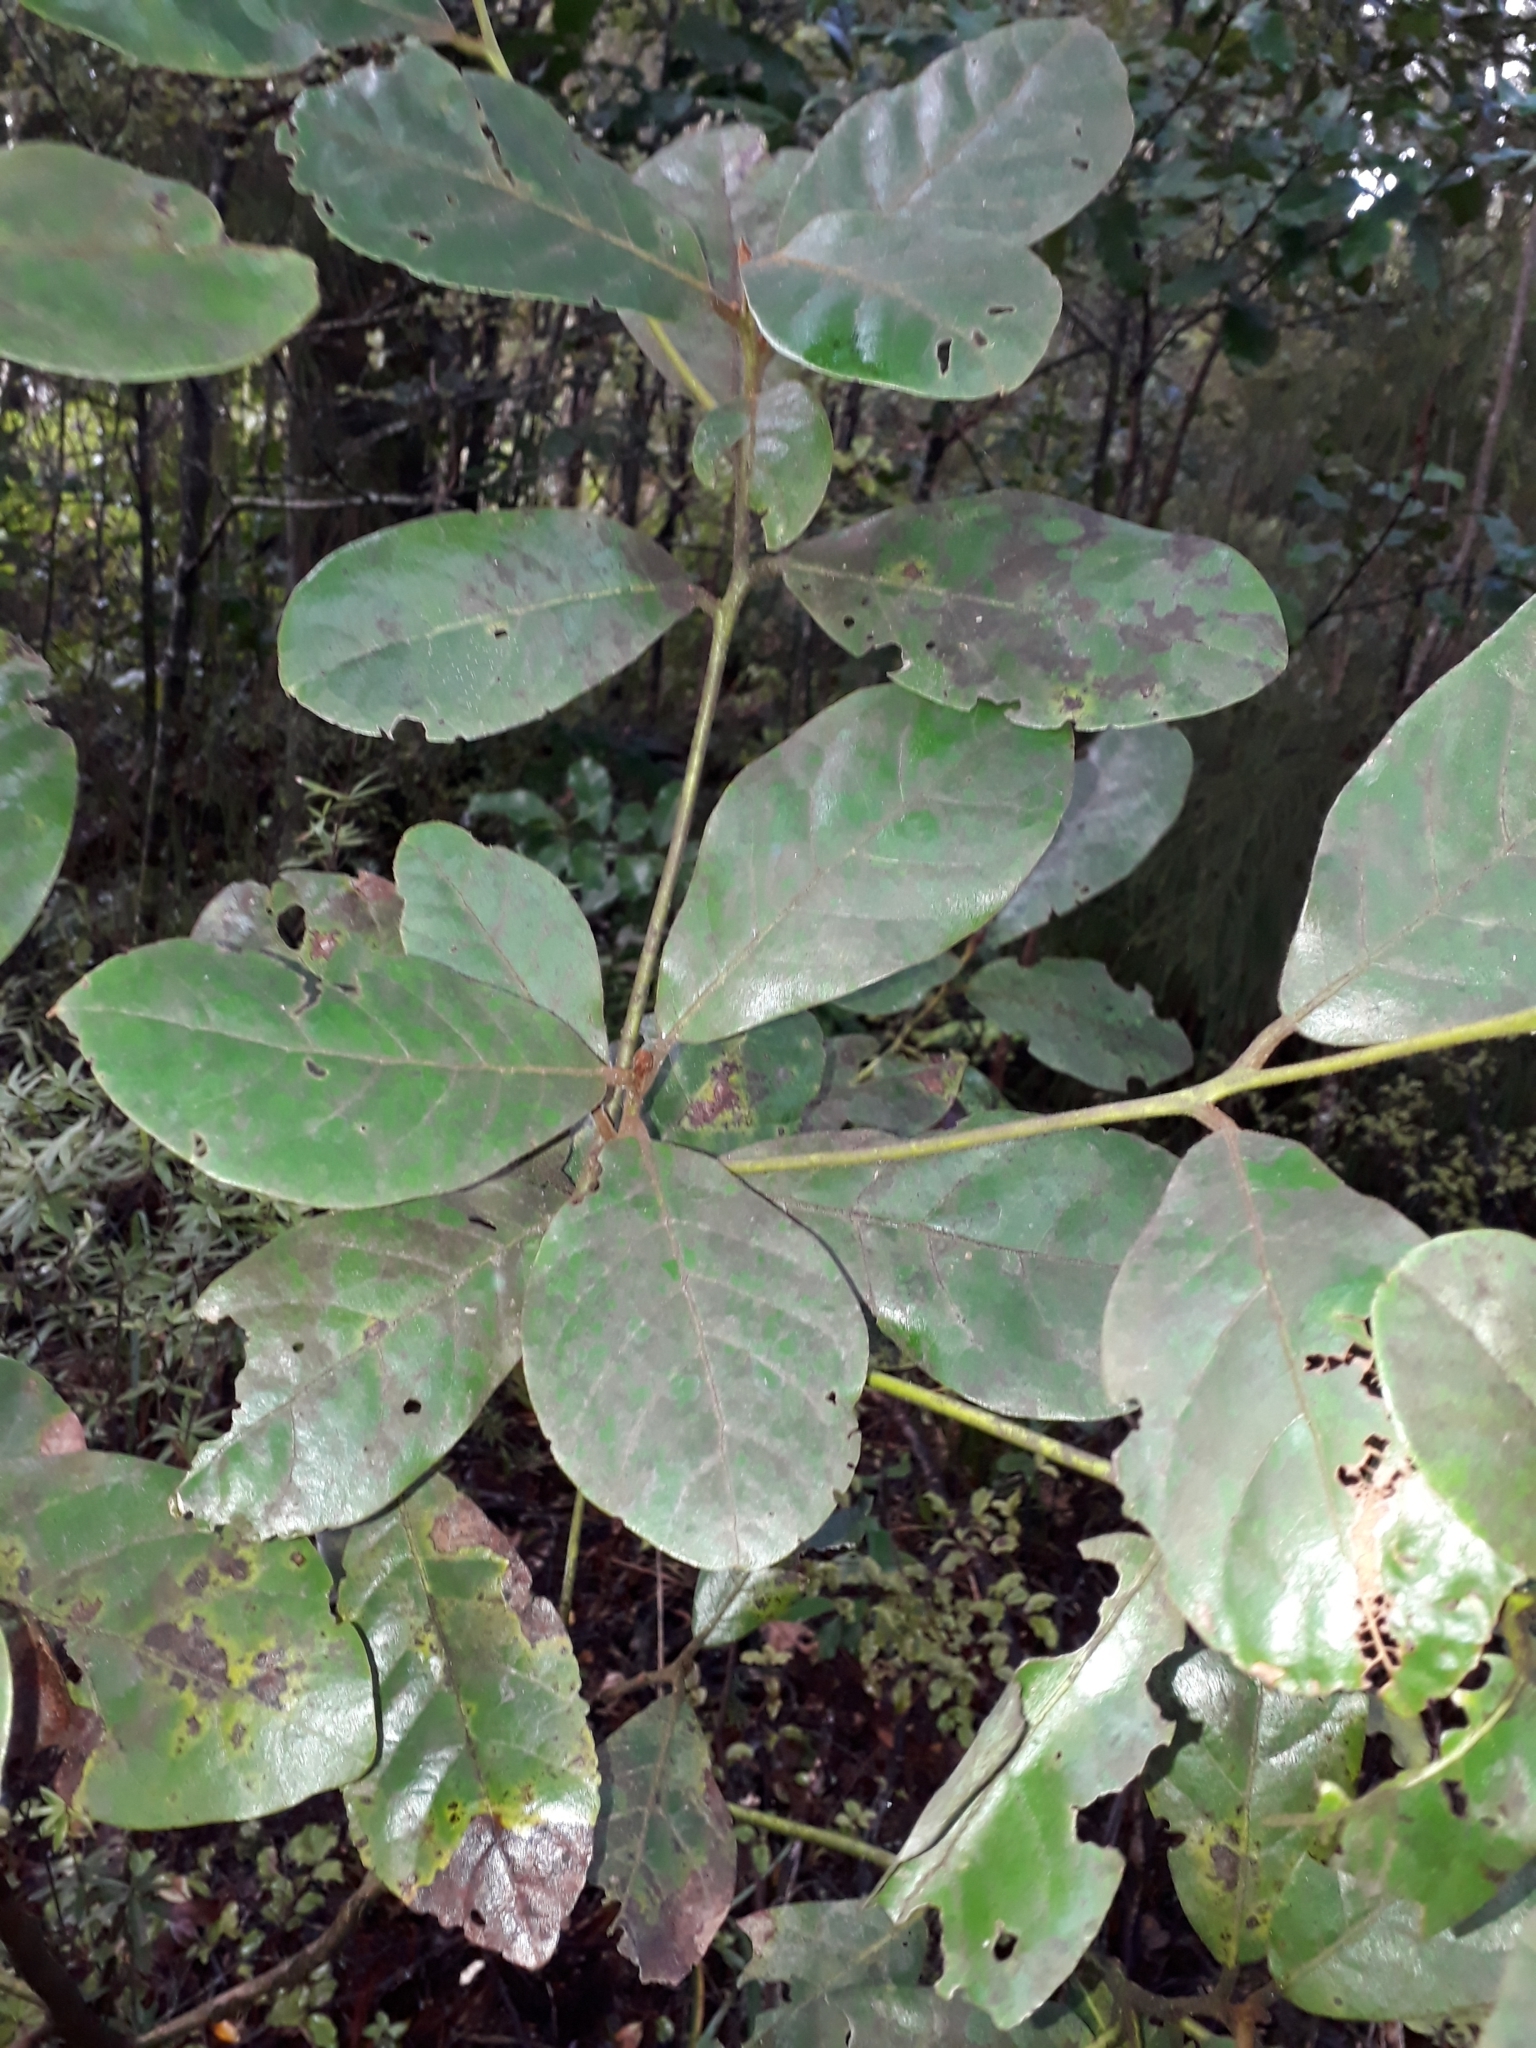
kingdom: Plantae
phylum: Tracheophyta
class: Magnoliopsida
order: Laurales
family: Lauraceae
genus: Beilschmiedia
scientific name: Beilschmiedia tarairi
